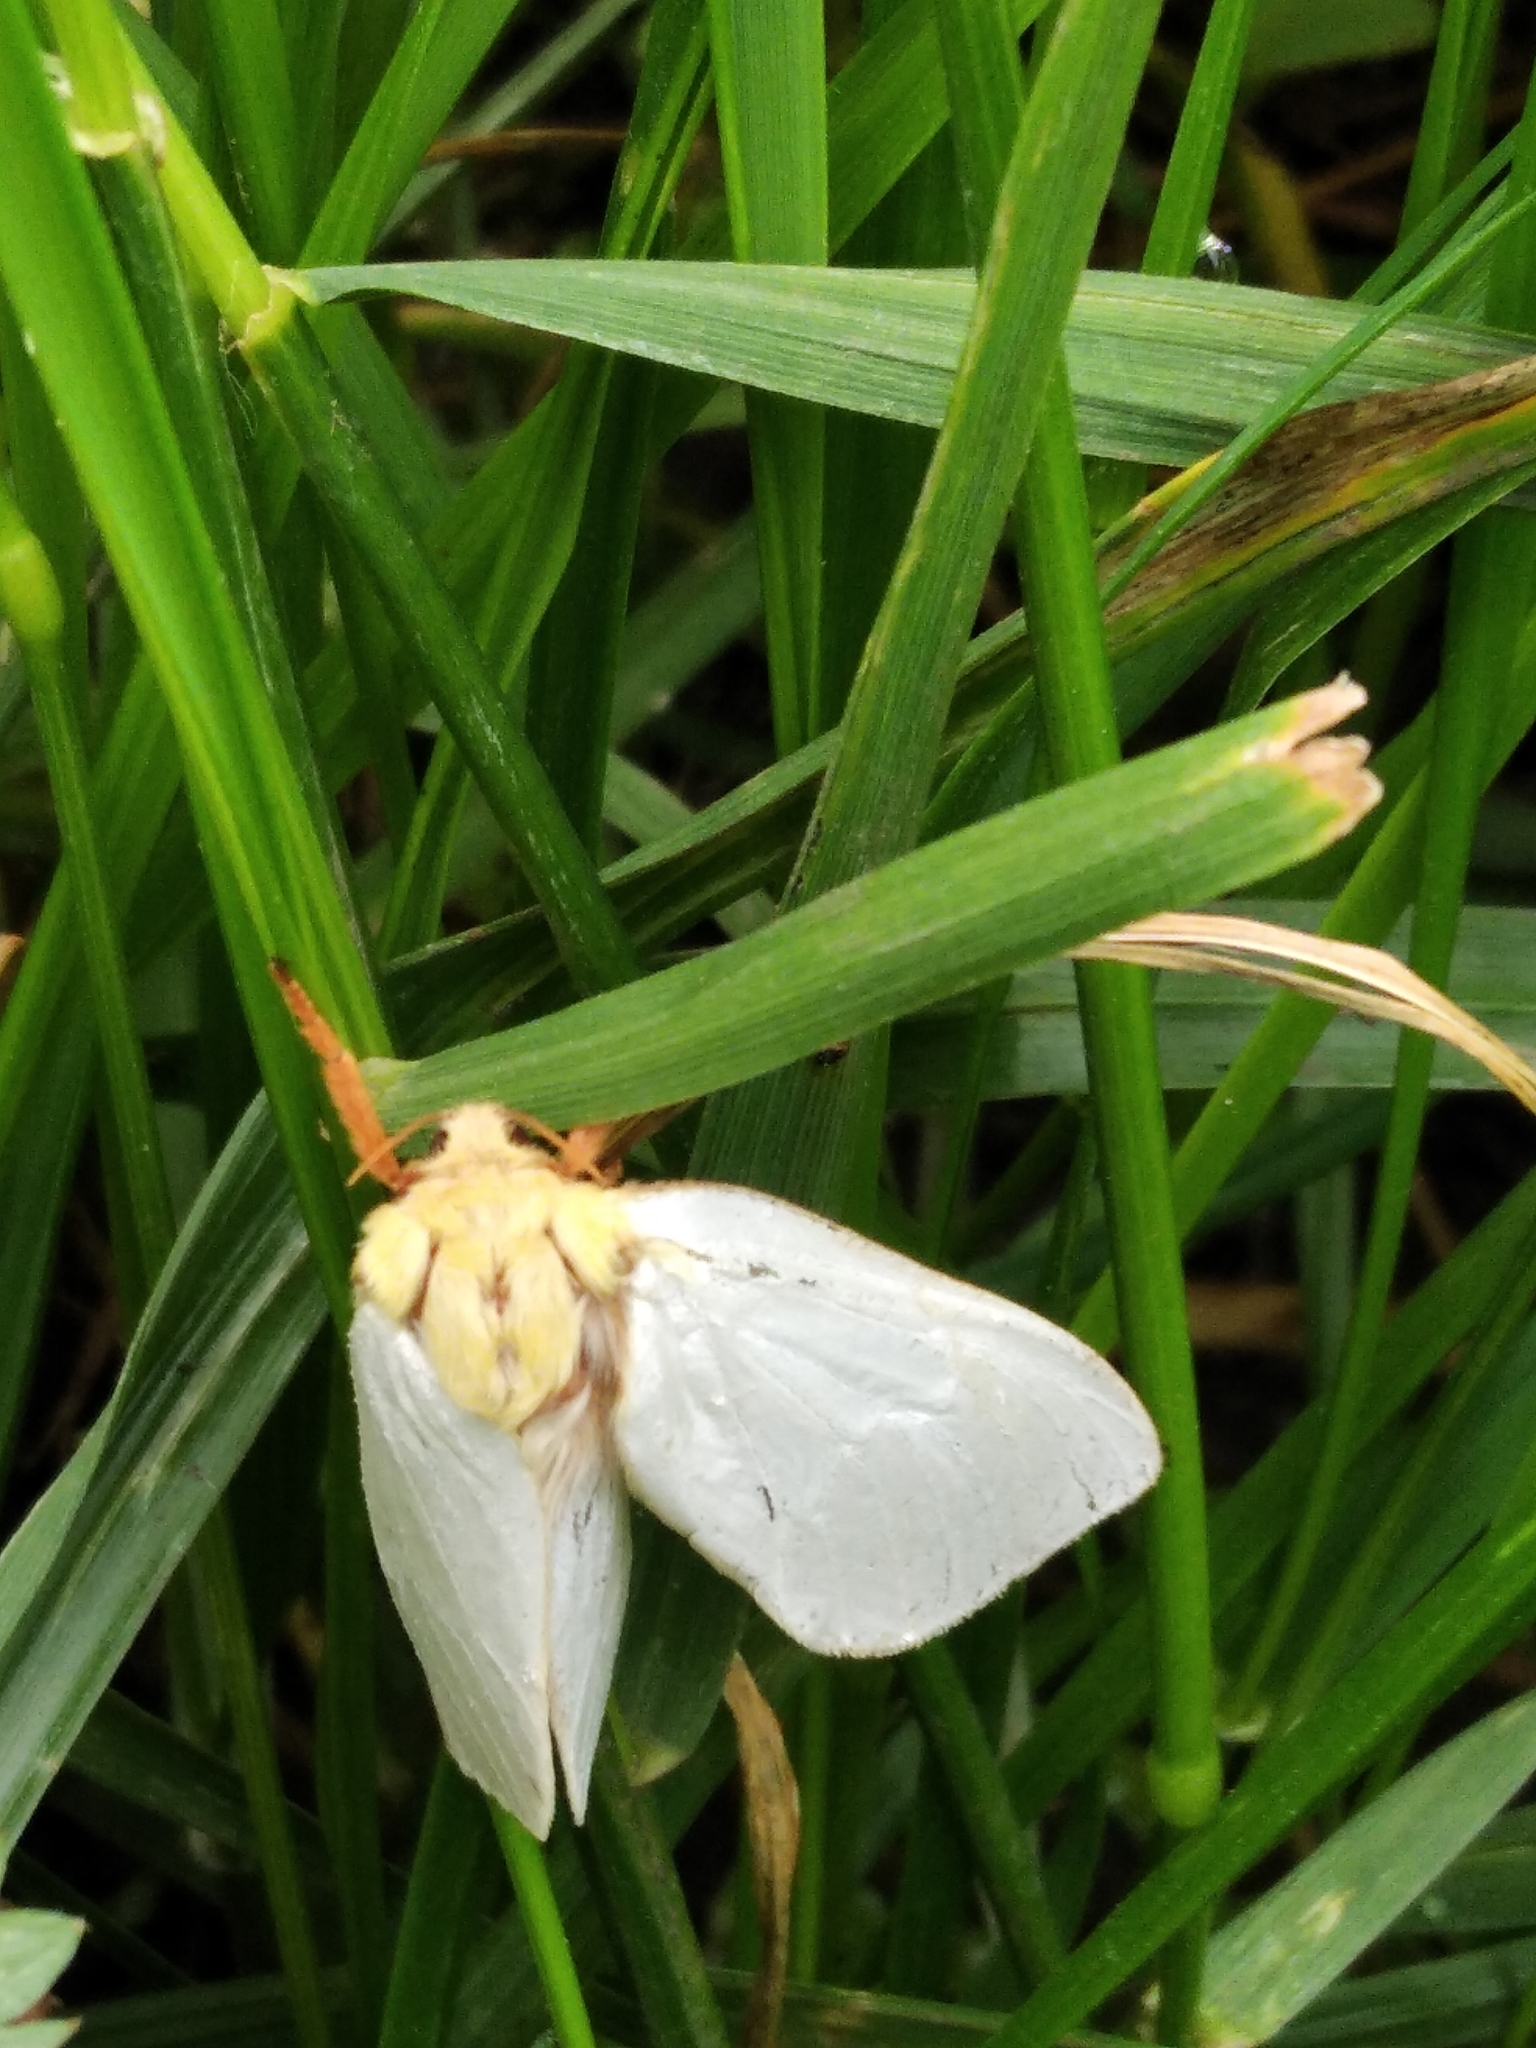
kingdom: Animalia
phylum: Arthropoda
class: Insecta
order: Lepidoptera
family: Hepialidae
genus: Hepialus
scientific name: Hepialus humuli
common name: Ghost moth
